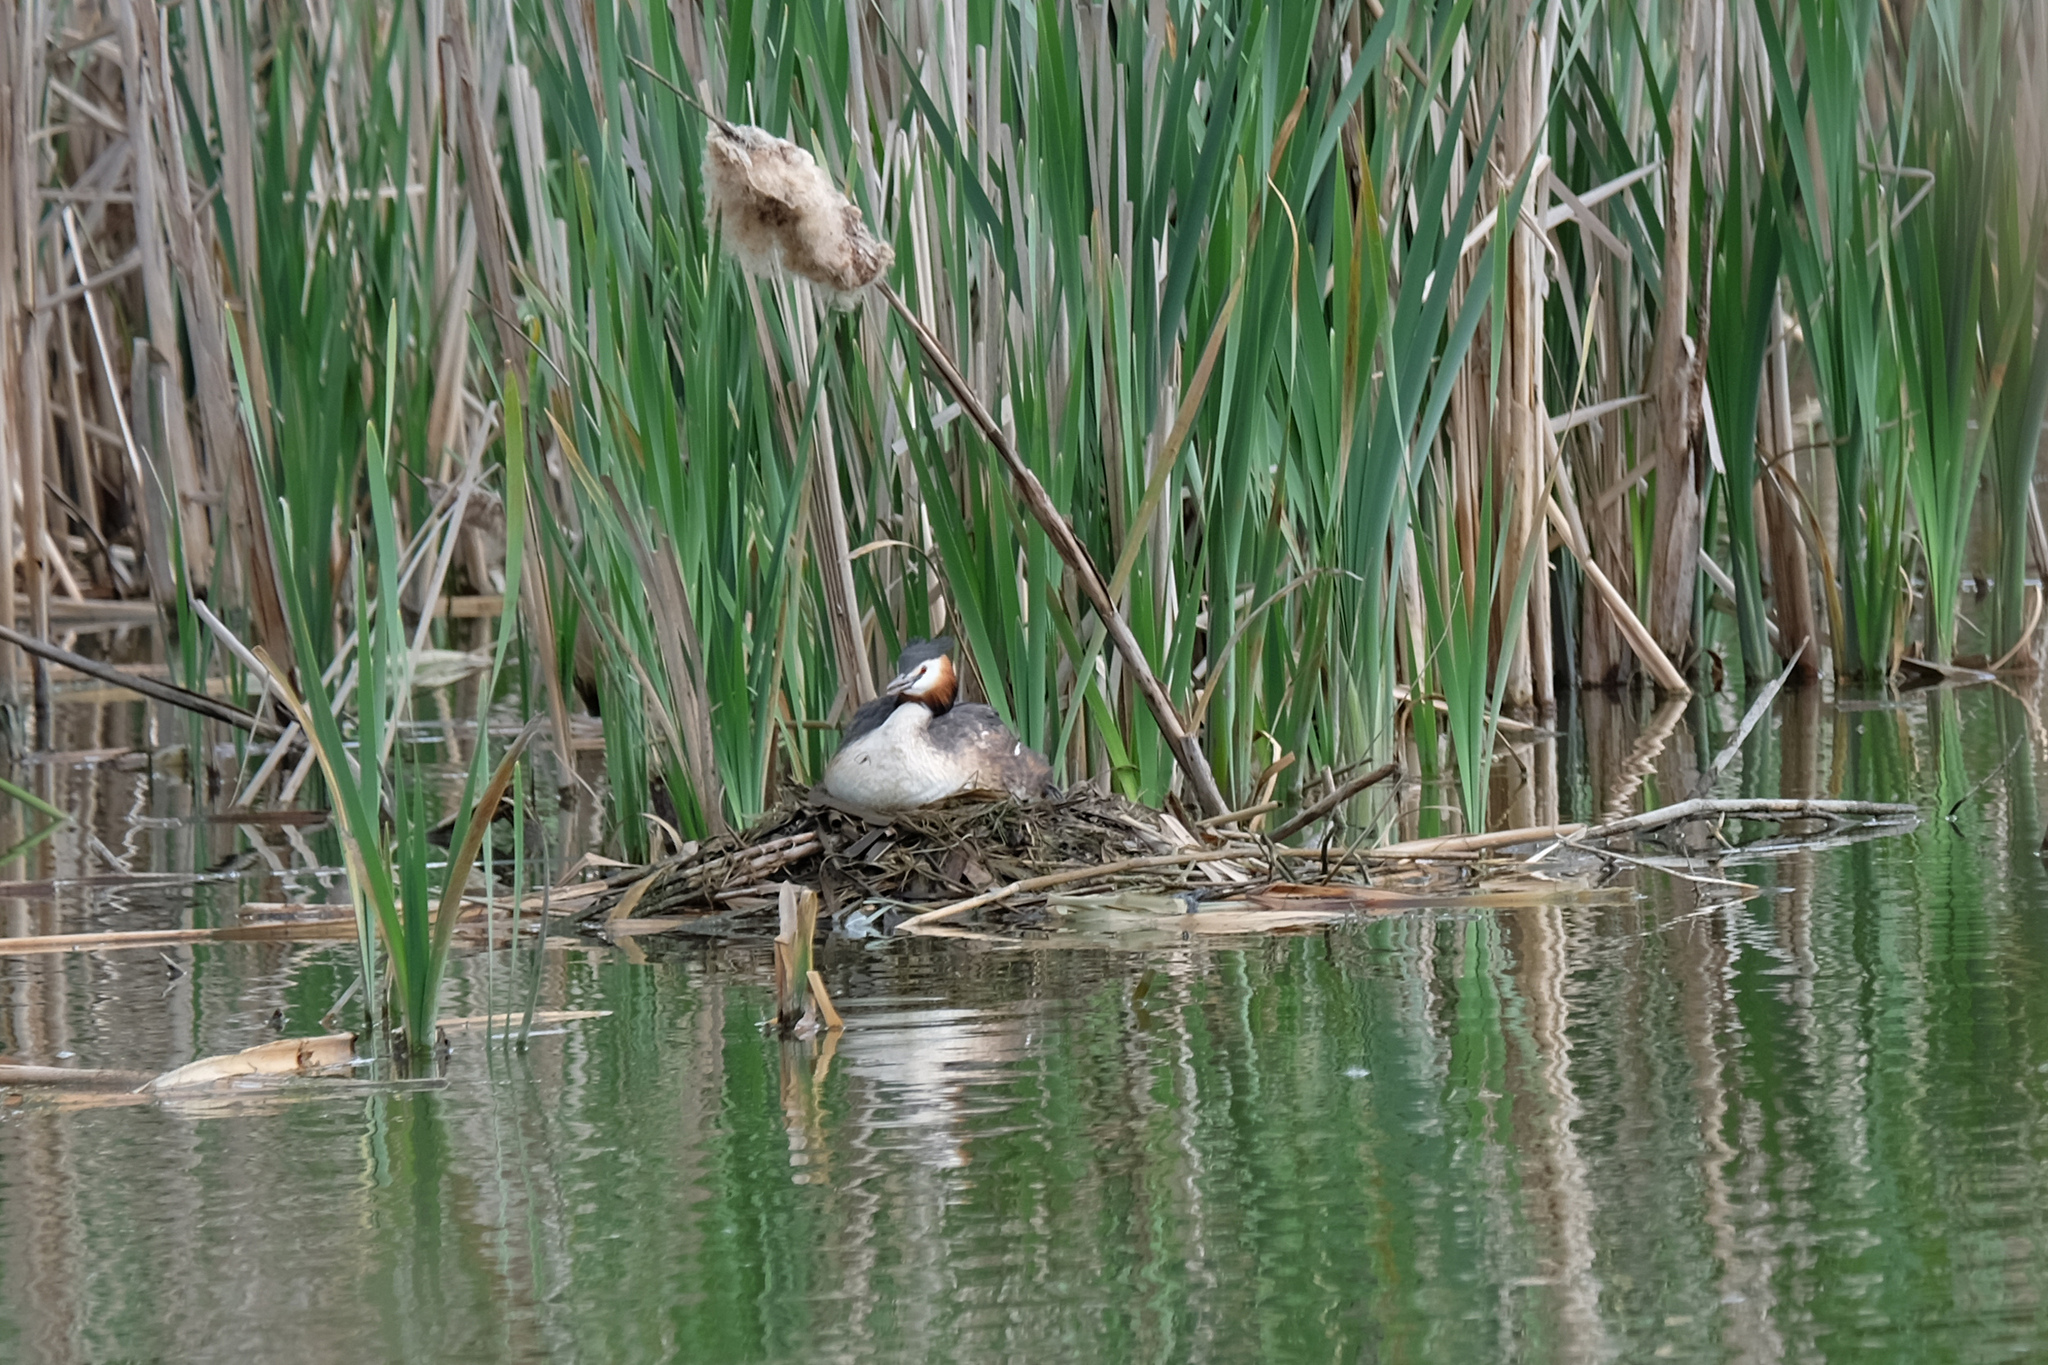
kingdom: Animalia
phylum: Chordata
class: Aves
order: Podicipediformes
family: Podicipedidae
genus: Podiceps
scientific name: Podiceps cristatus
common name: Great crested grebe
